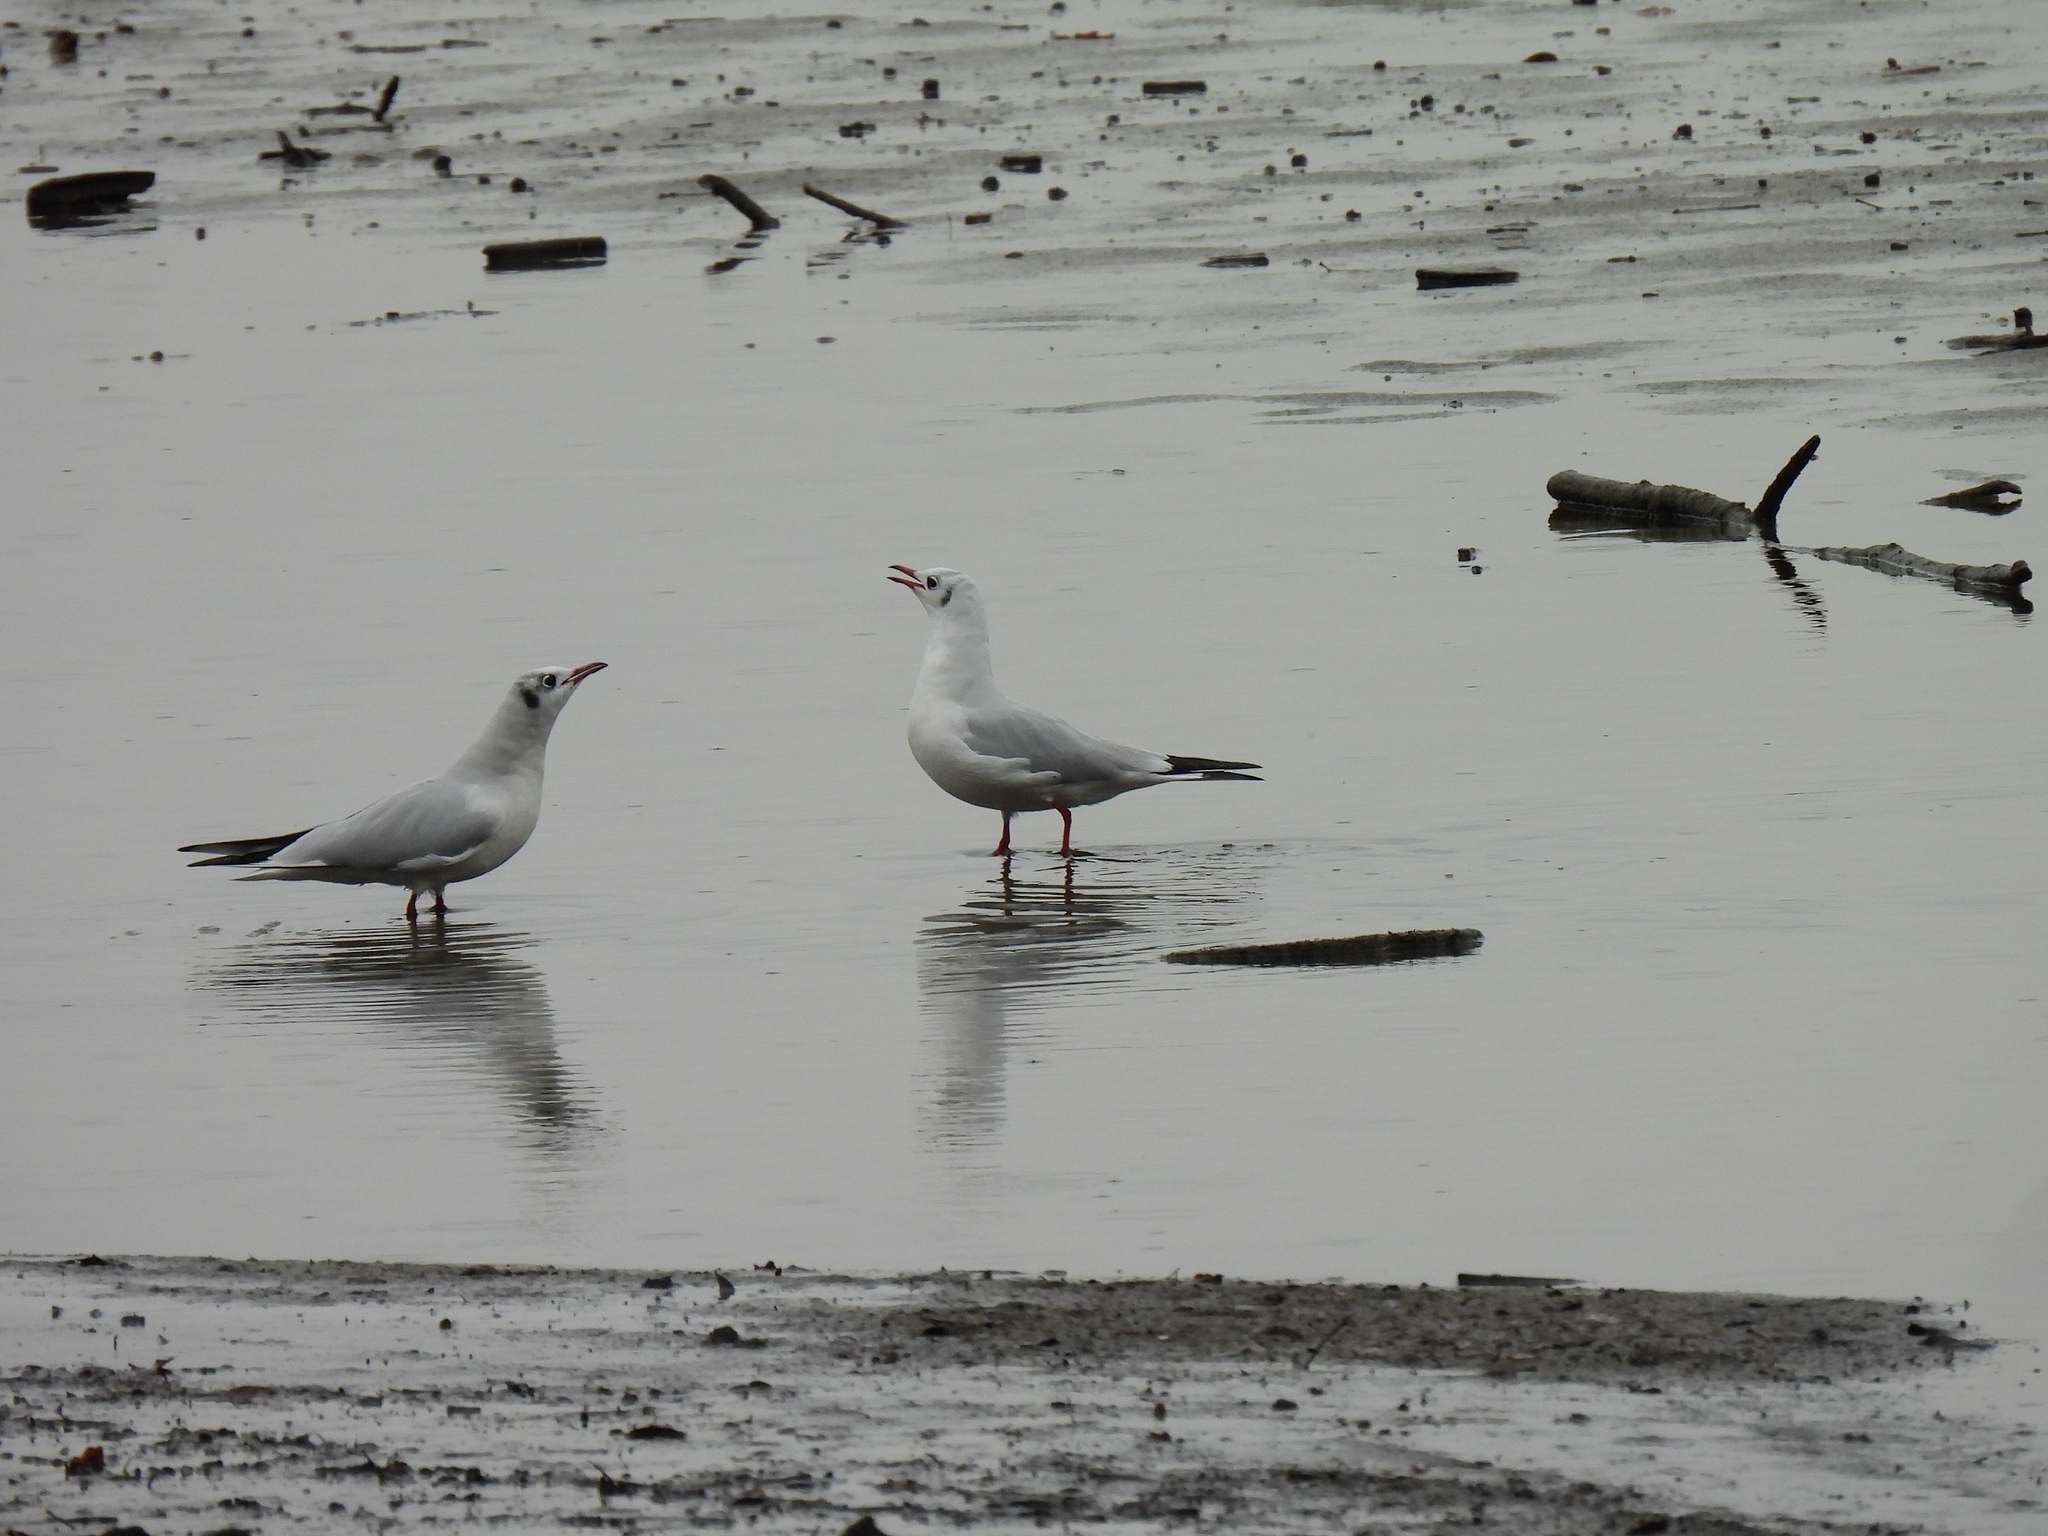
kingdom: Animalia
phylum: Chordata
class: Aves
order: Charadriiformes
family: Laridae
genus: Chroicocephalus
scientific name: Chroicocephalus ridibundus
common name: Black-headed gull
